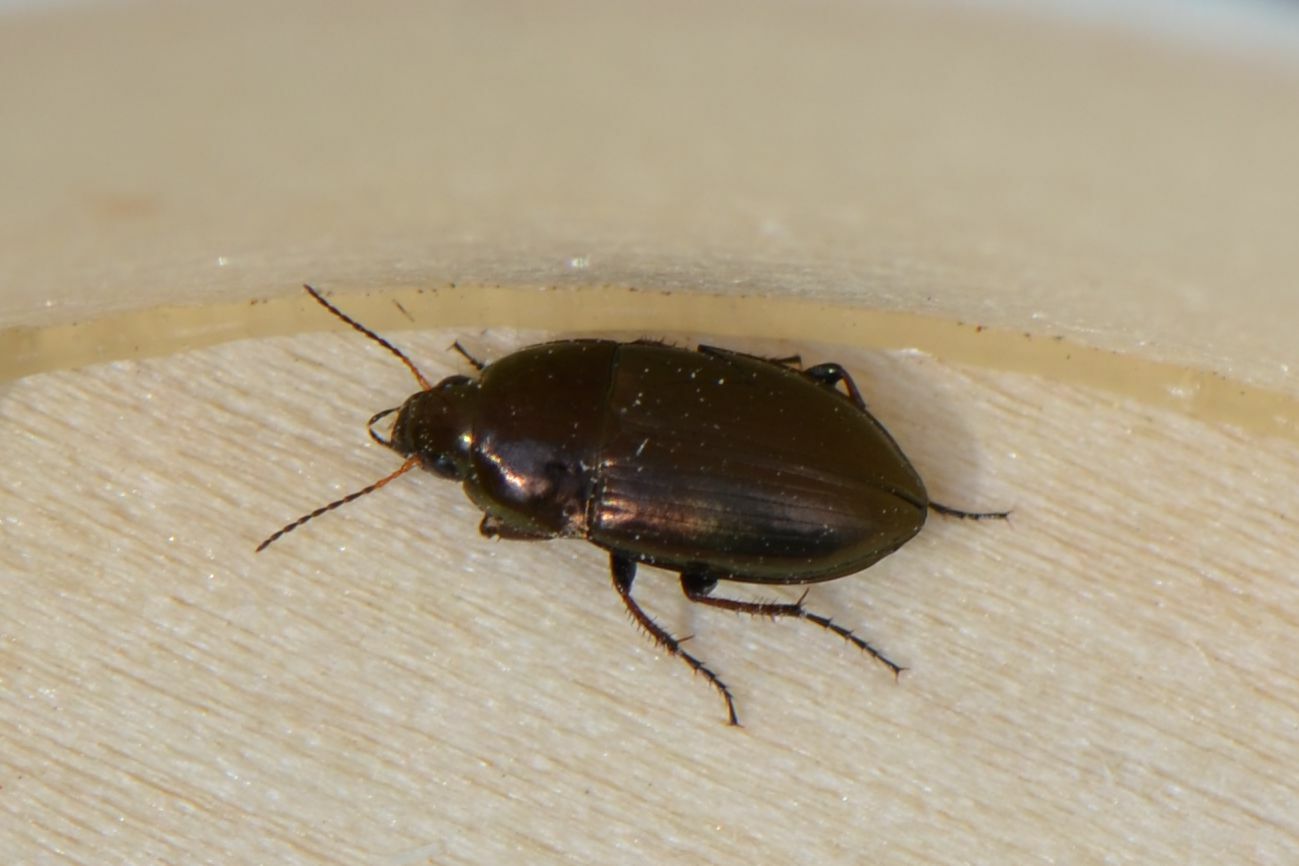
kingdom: Animalia
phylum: Arthropoda
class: Insecta
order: Coleoptera
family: Carabidae
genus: Amara
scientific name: Amara aenea
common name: Common sun beetle
